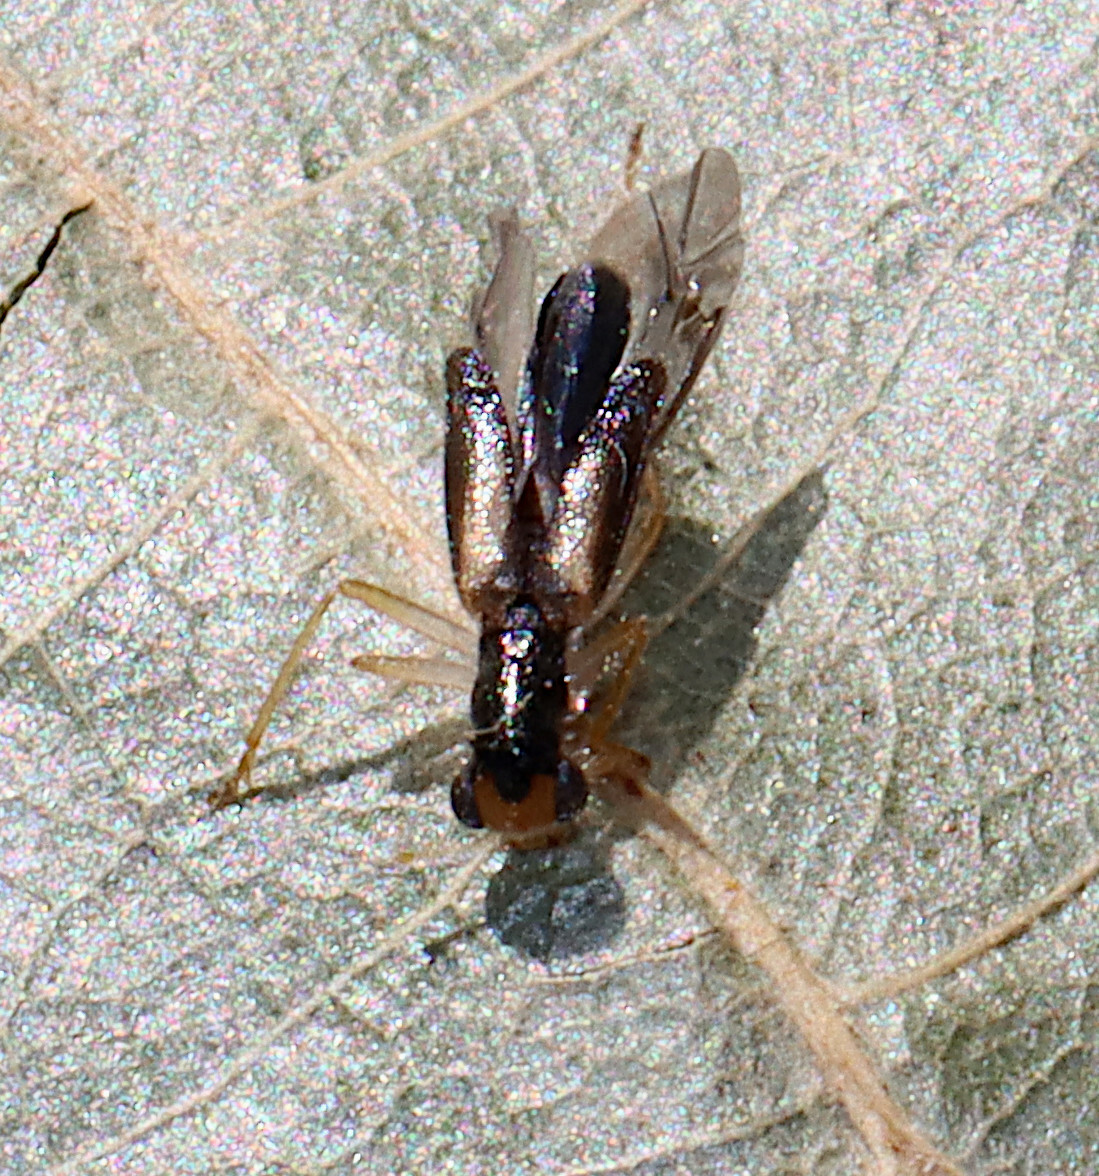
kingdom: Animalia
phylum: Arthropoda
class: Insecta
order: Coleoptera
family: Cleridae
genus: Phyllobaenus
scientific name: Phyllobaenus verticalis
